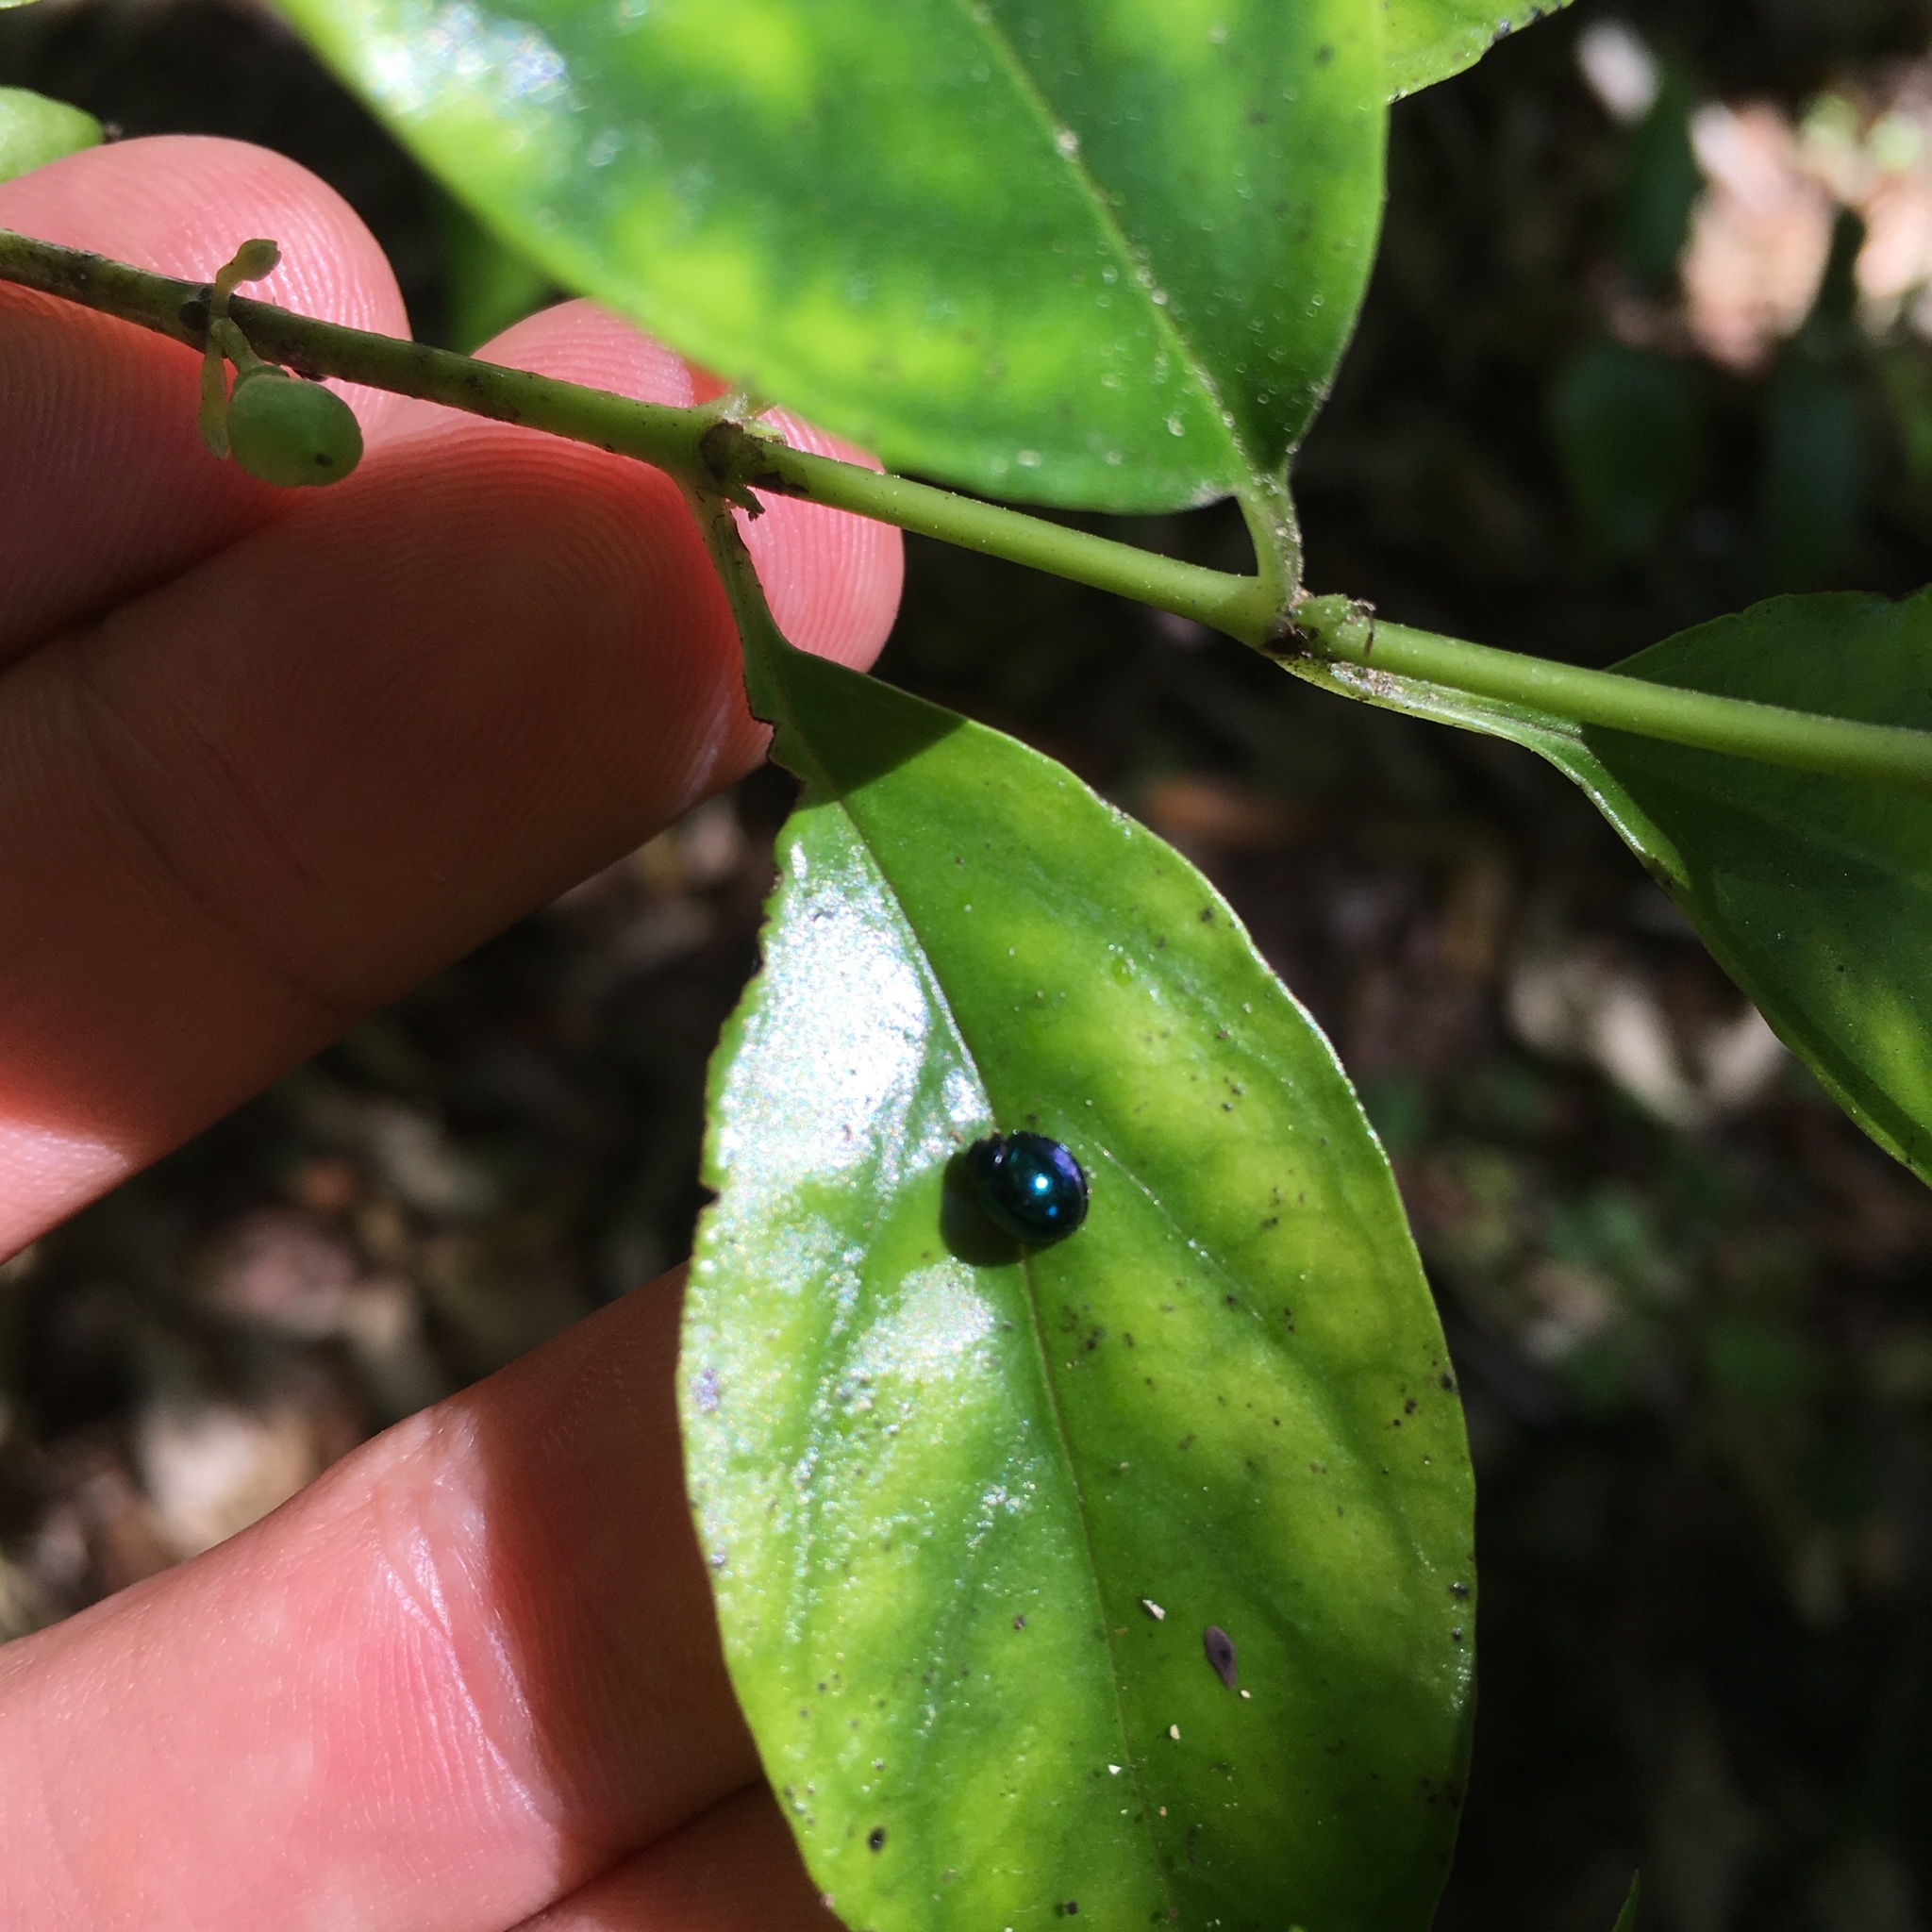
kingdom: Animalia
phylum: Arthropoda
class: Insecta
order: Coleoptera
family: Coccinellidae
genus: Halmus
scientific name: Halmus chalybeus
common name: Steel blue ladybird beetle
